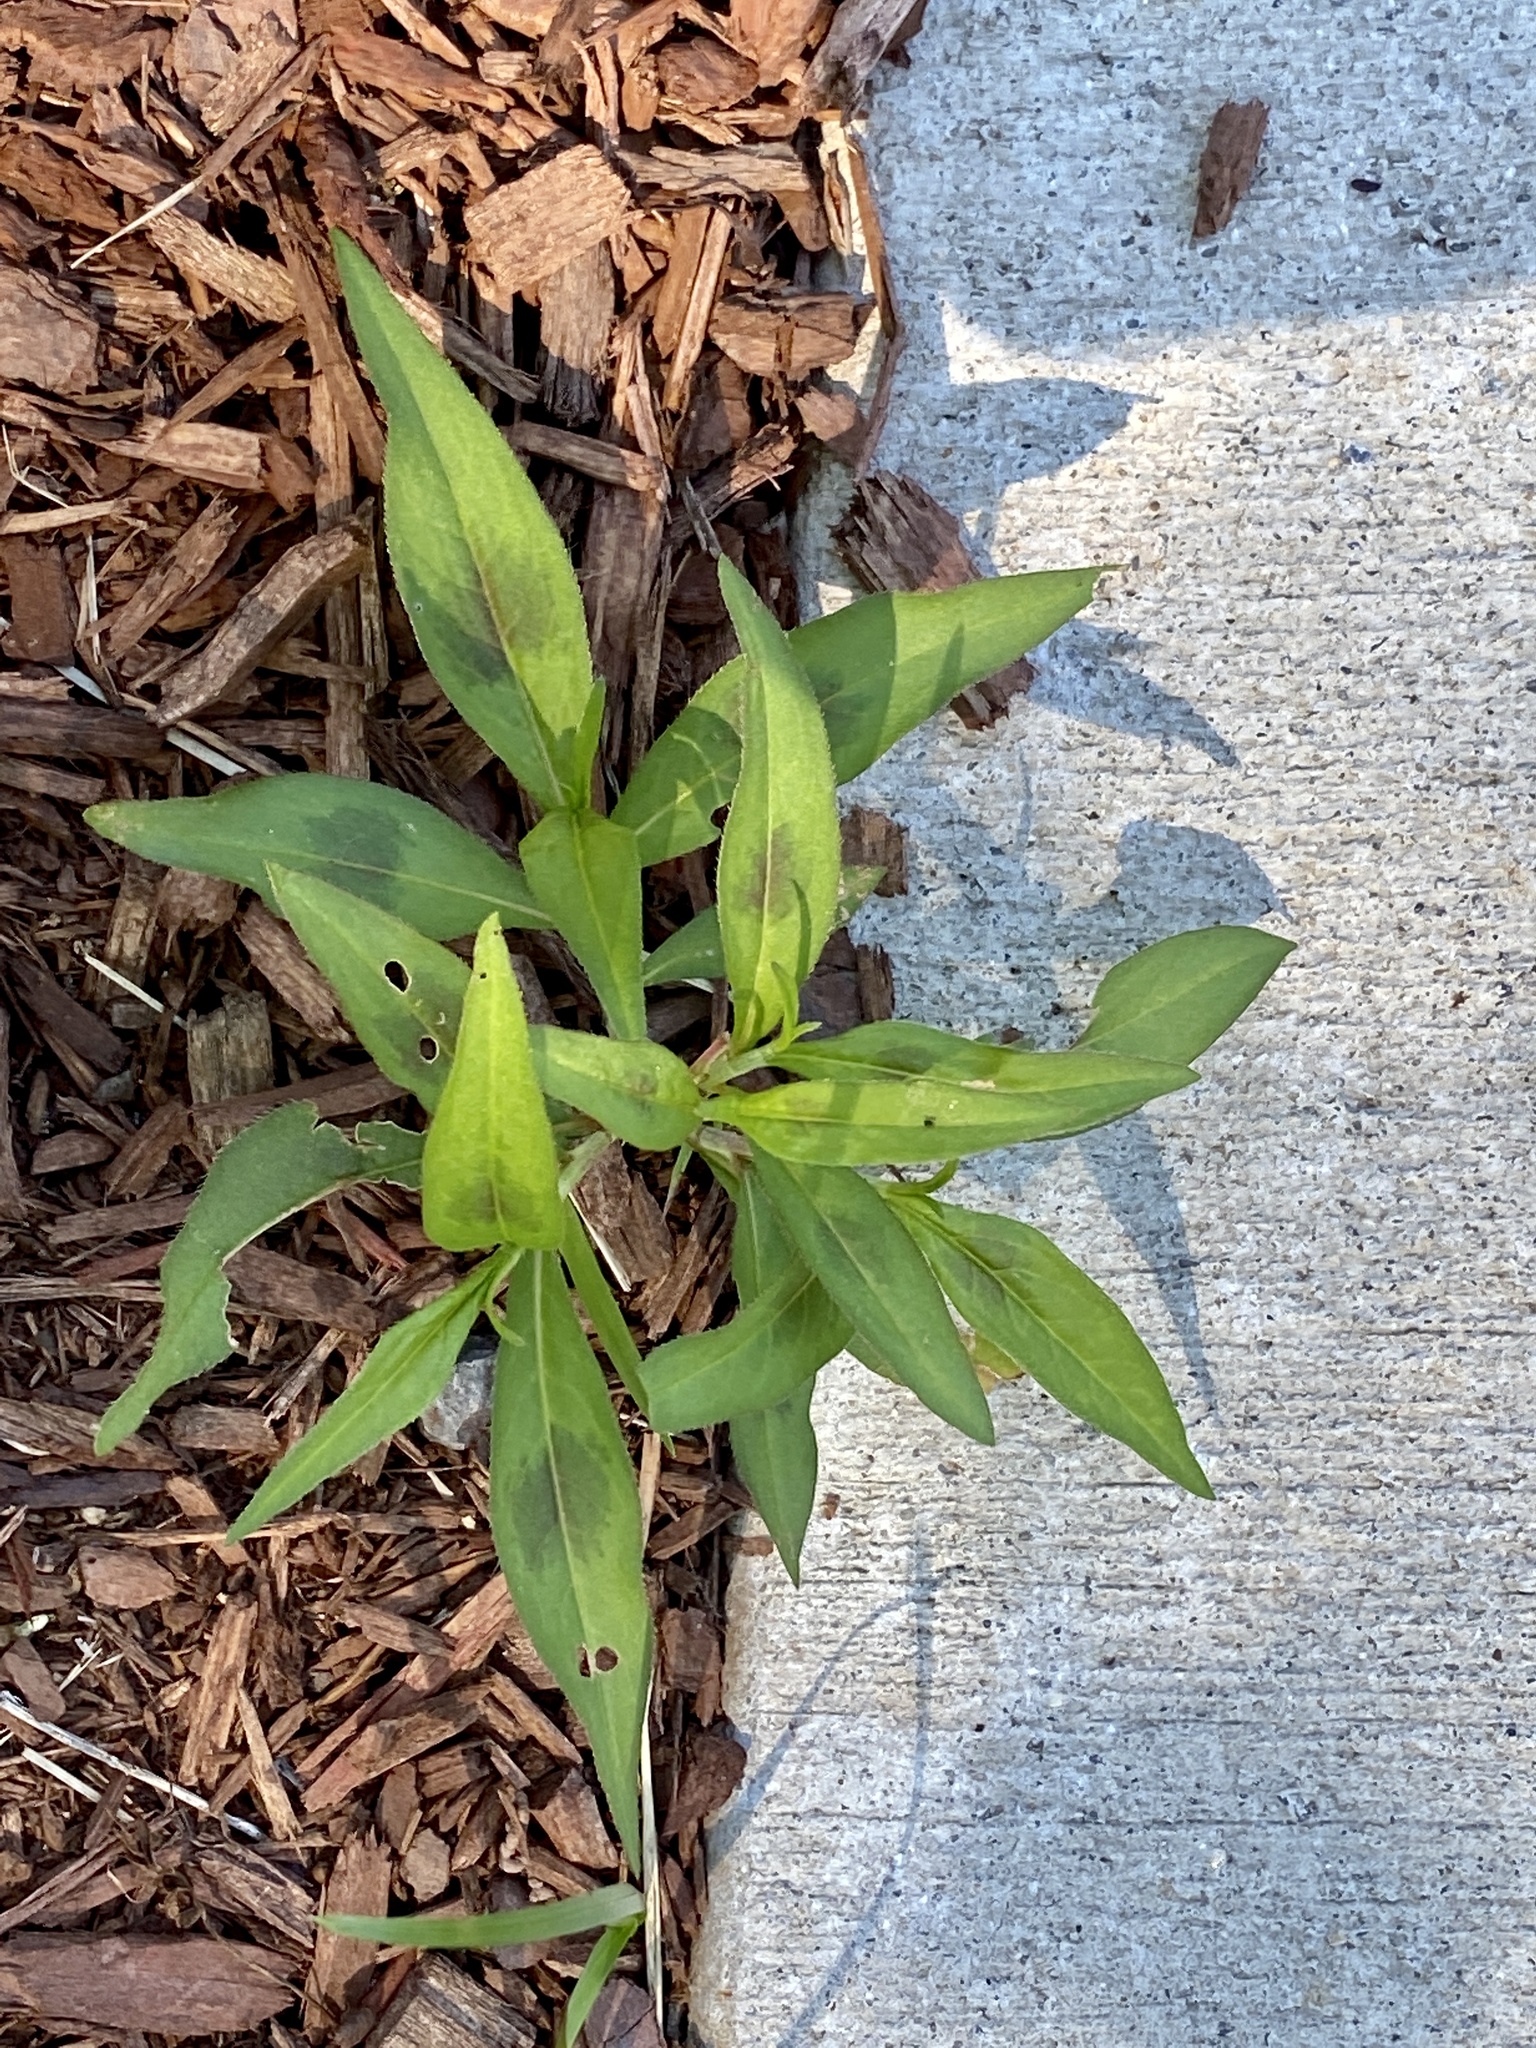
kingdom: Plantae
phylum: Tracheophyta
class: Magnoliopsida
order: Caryophyllales
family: Polygonaceae
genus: Persicaria
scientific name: Persicaria maculosa
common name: Redshank
